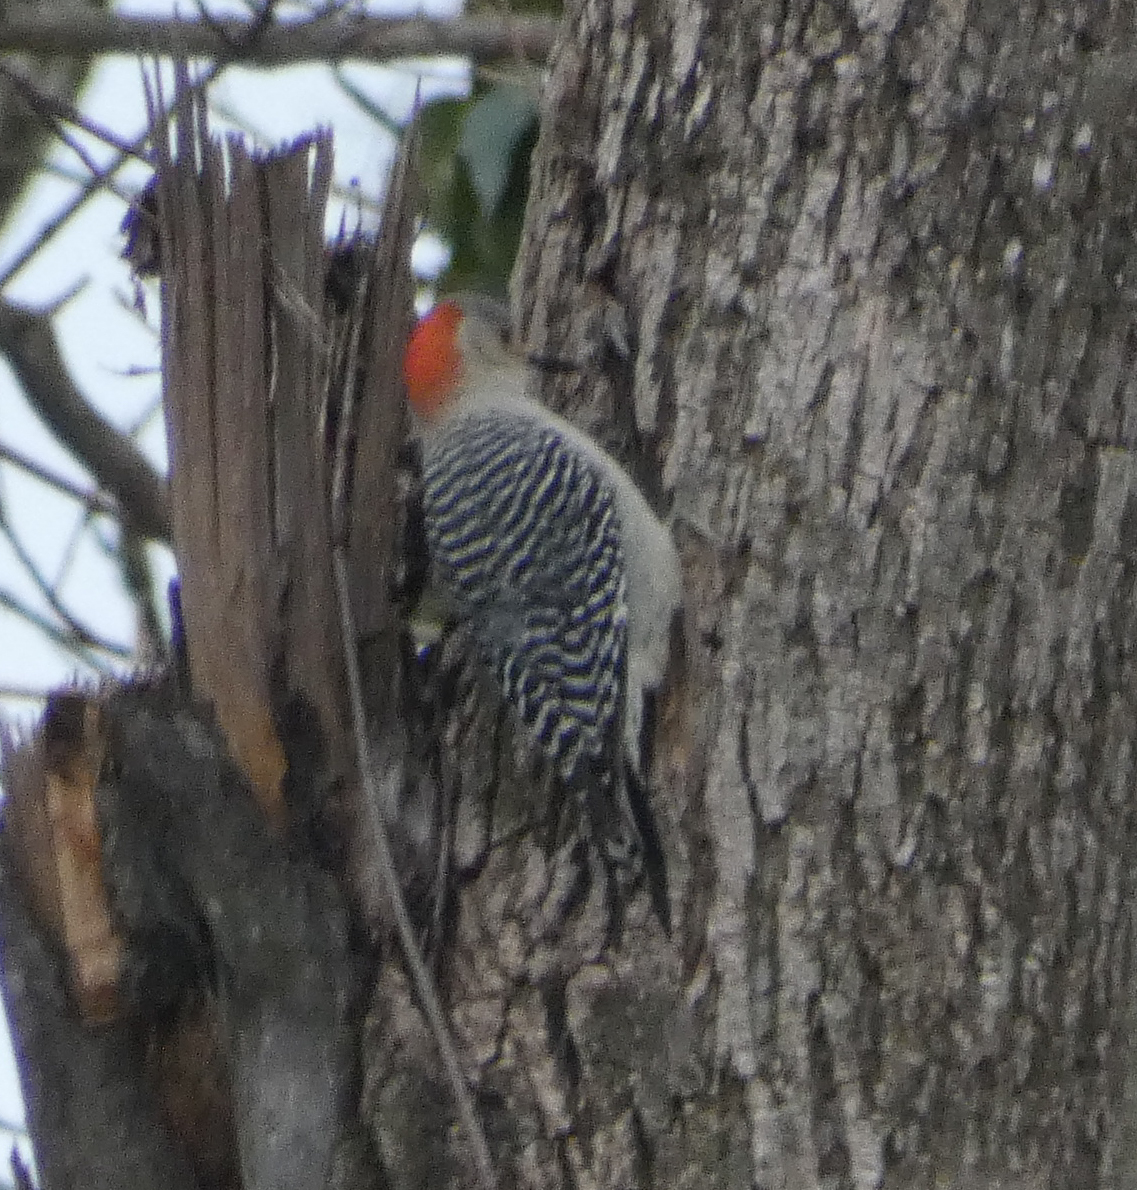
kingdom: Animalia
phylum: Chordata
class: Aves
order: Piciformes
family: Picidae
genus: Melanerpes
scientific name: Melanerpes carolinus
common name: Red-bellied woodpecker
